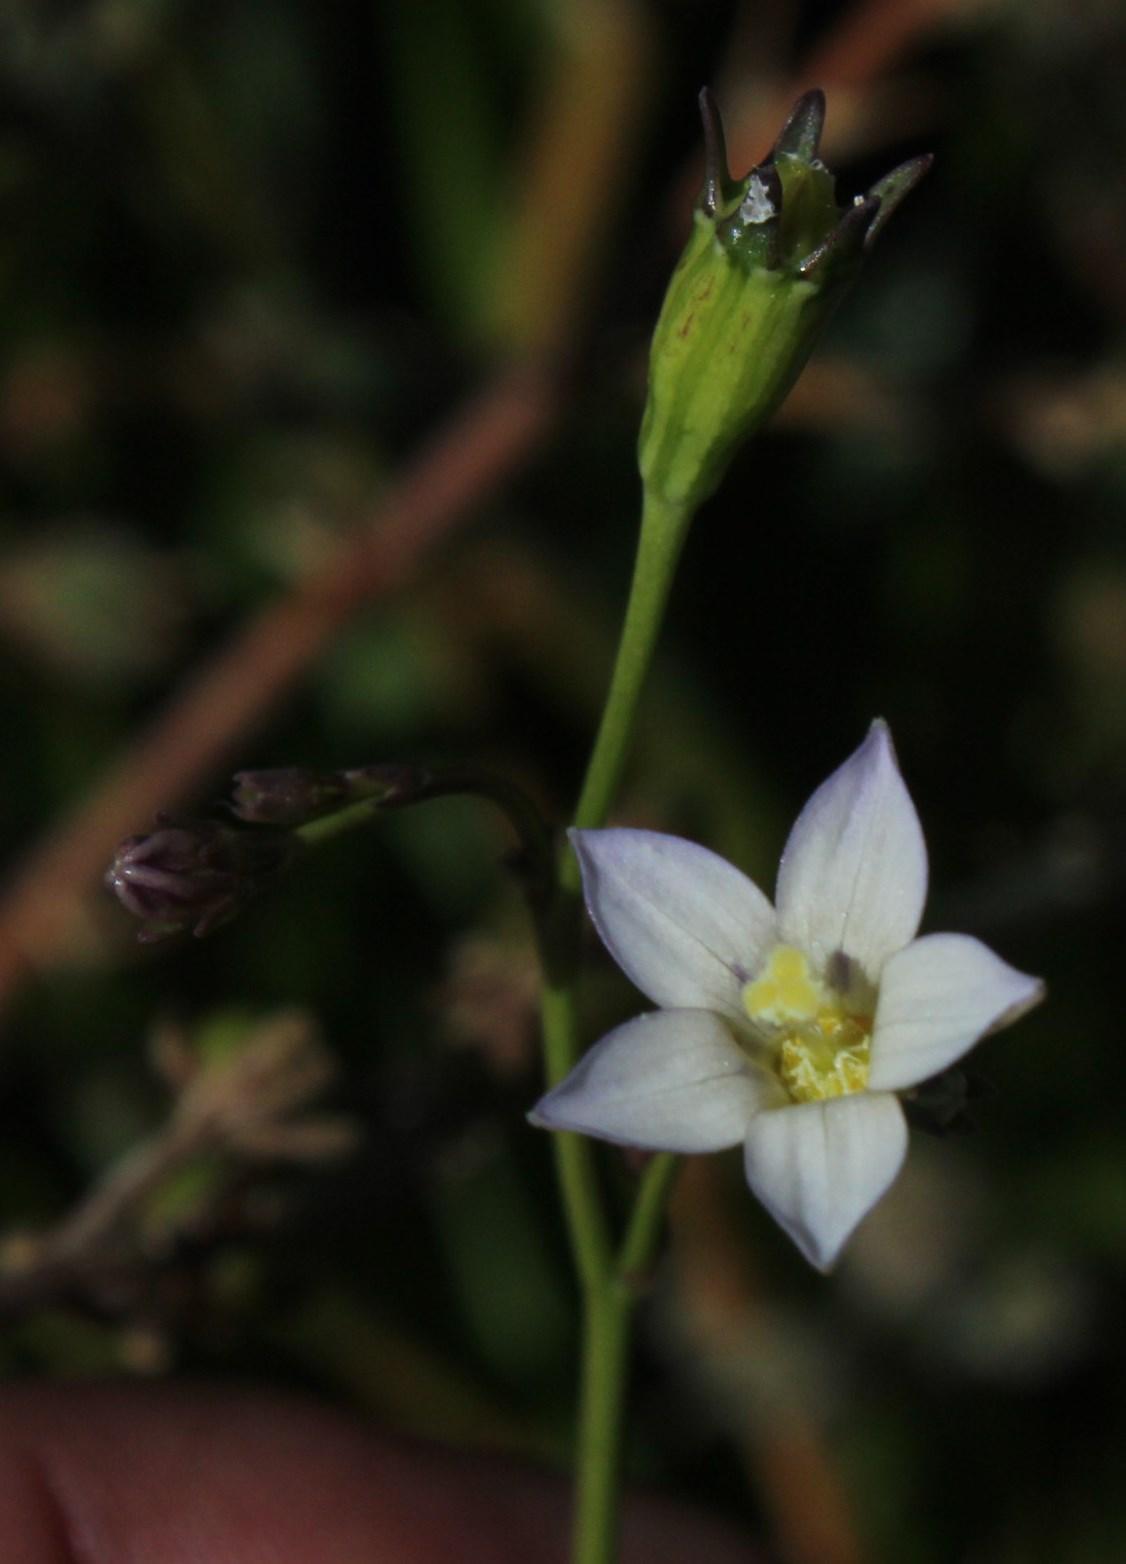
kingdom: Plantae
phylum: Tracheophyta
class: Magnoliopsida
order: Asterales
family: Campanulaceae
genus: Wahlenbergia
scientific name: Wahlenbergia androsacea
